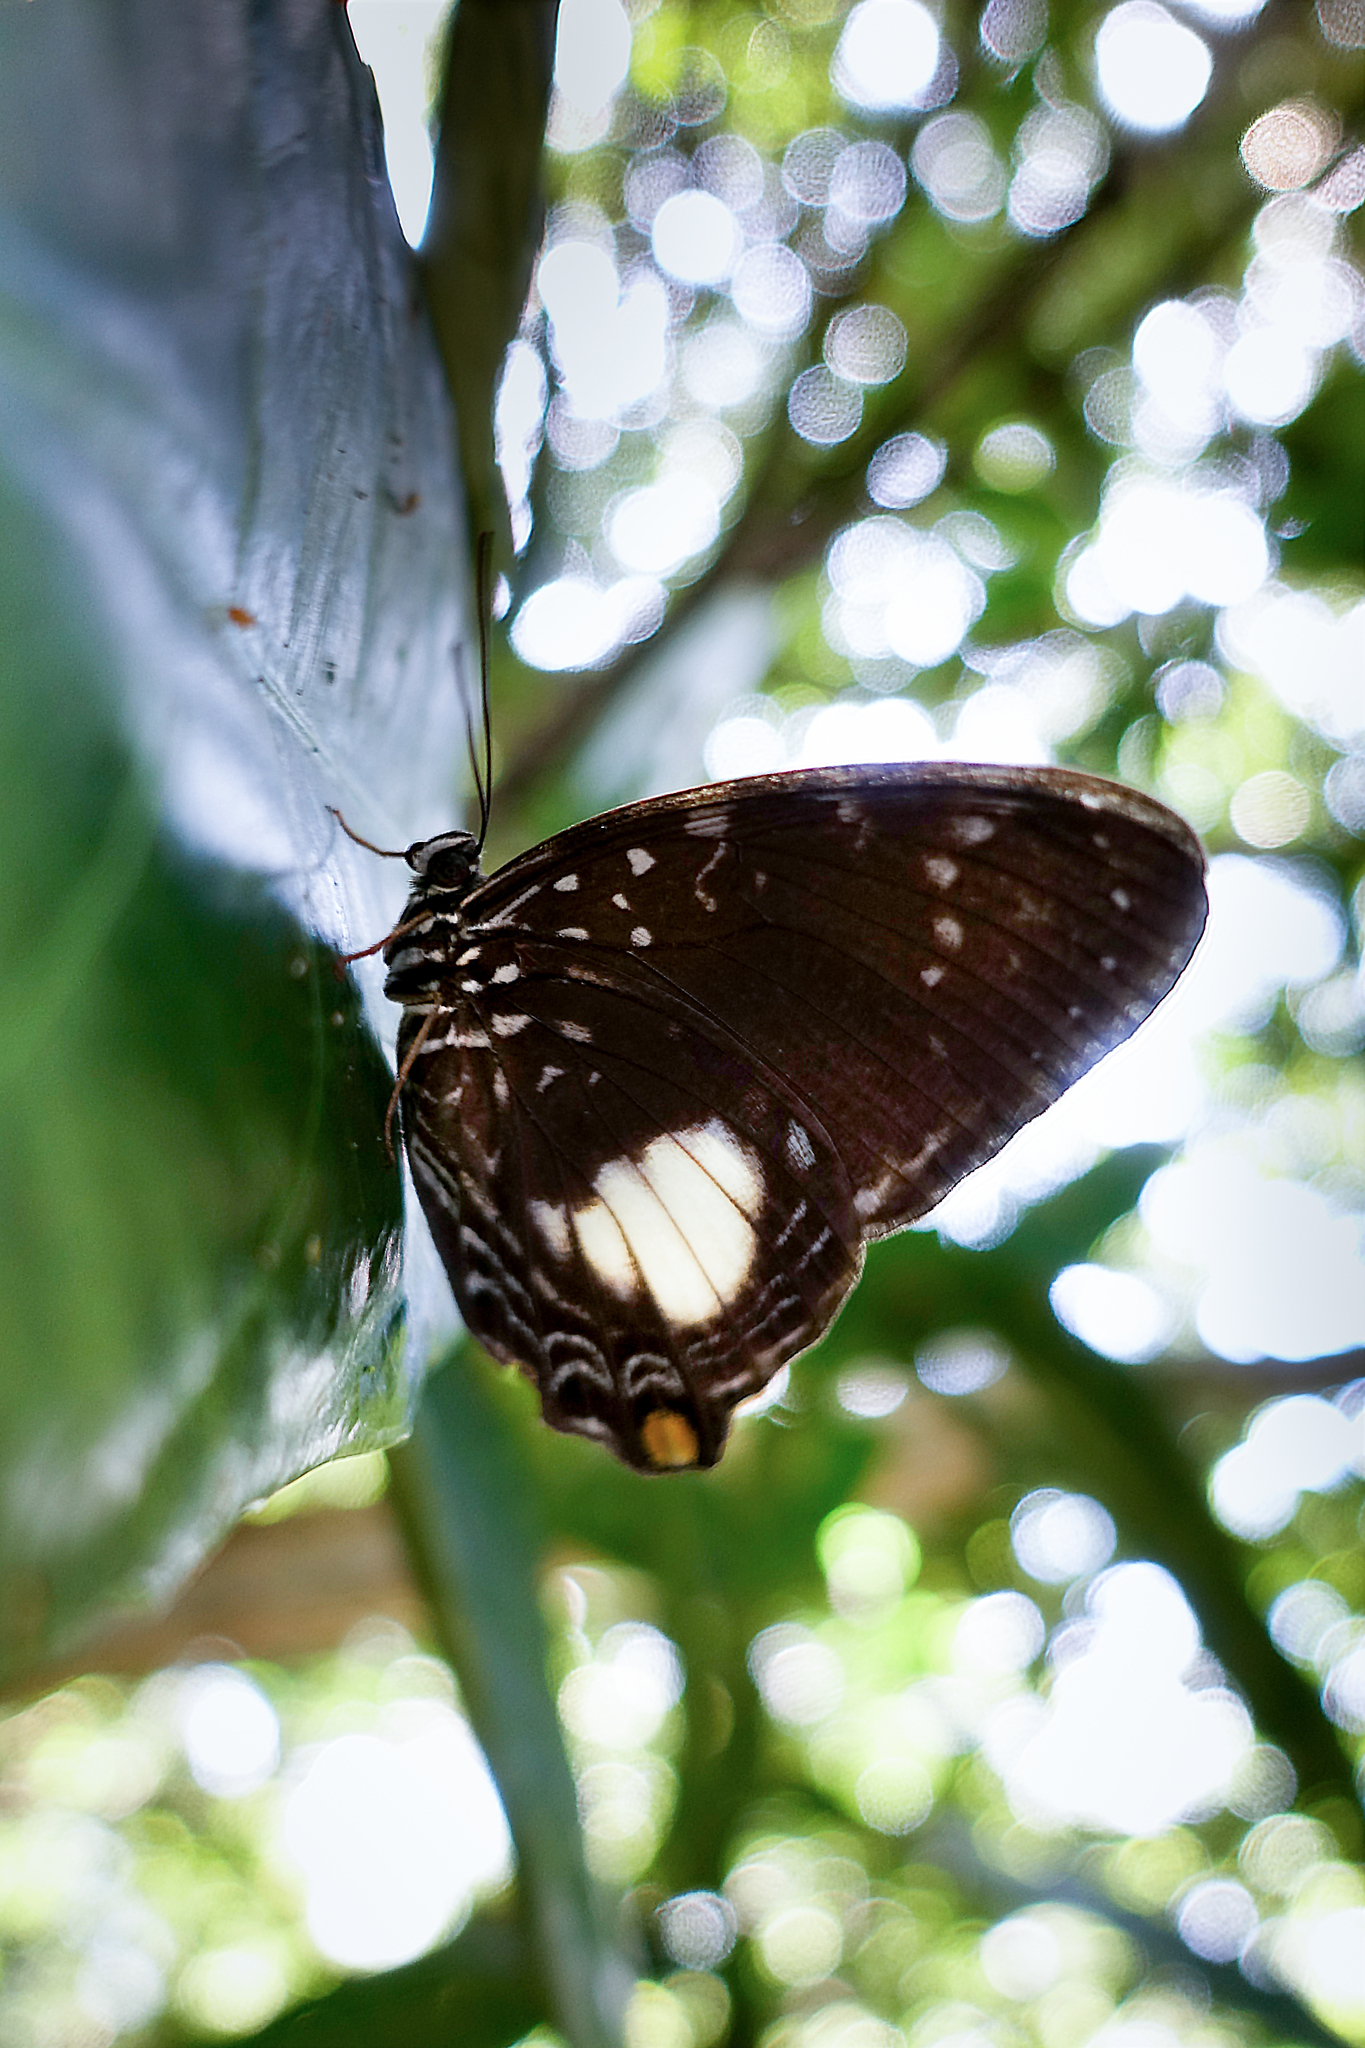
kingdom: Animalia
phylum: Arthropoda
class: Insecta
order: Lepidoptera
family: Nymphalidae
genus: Prothoe
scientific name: Prothoe australis
